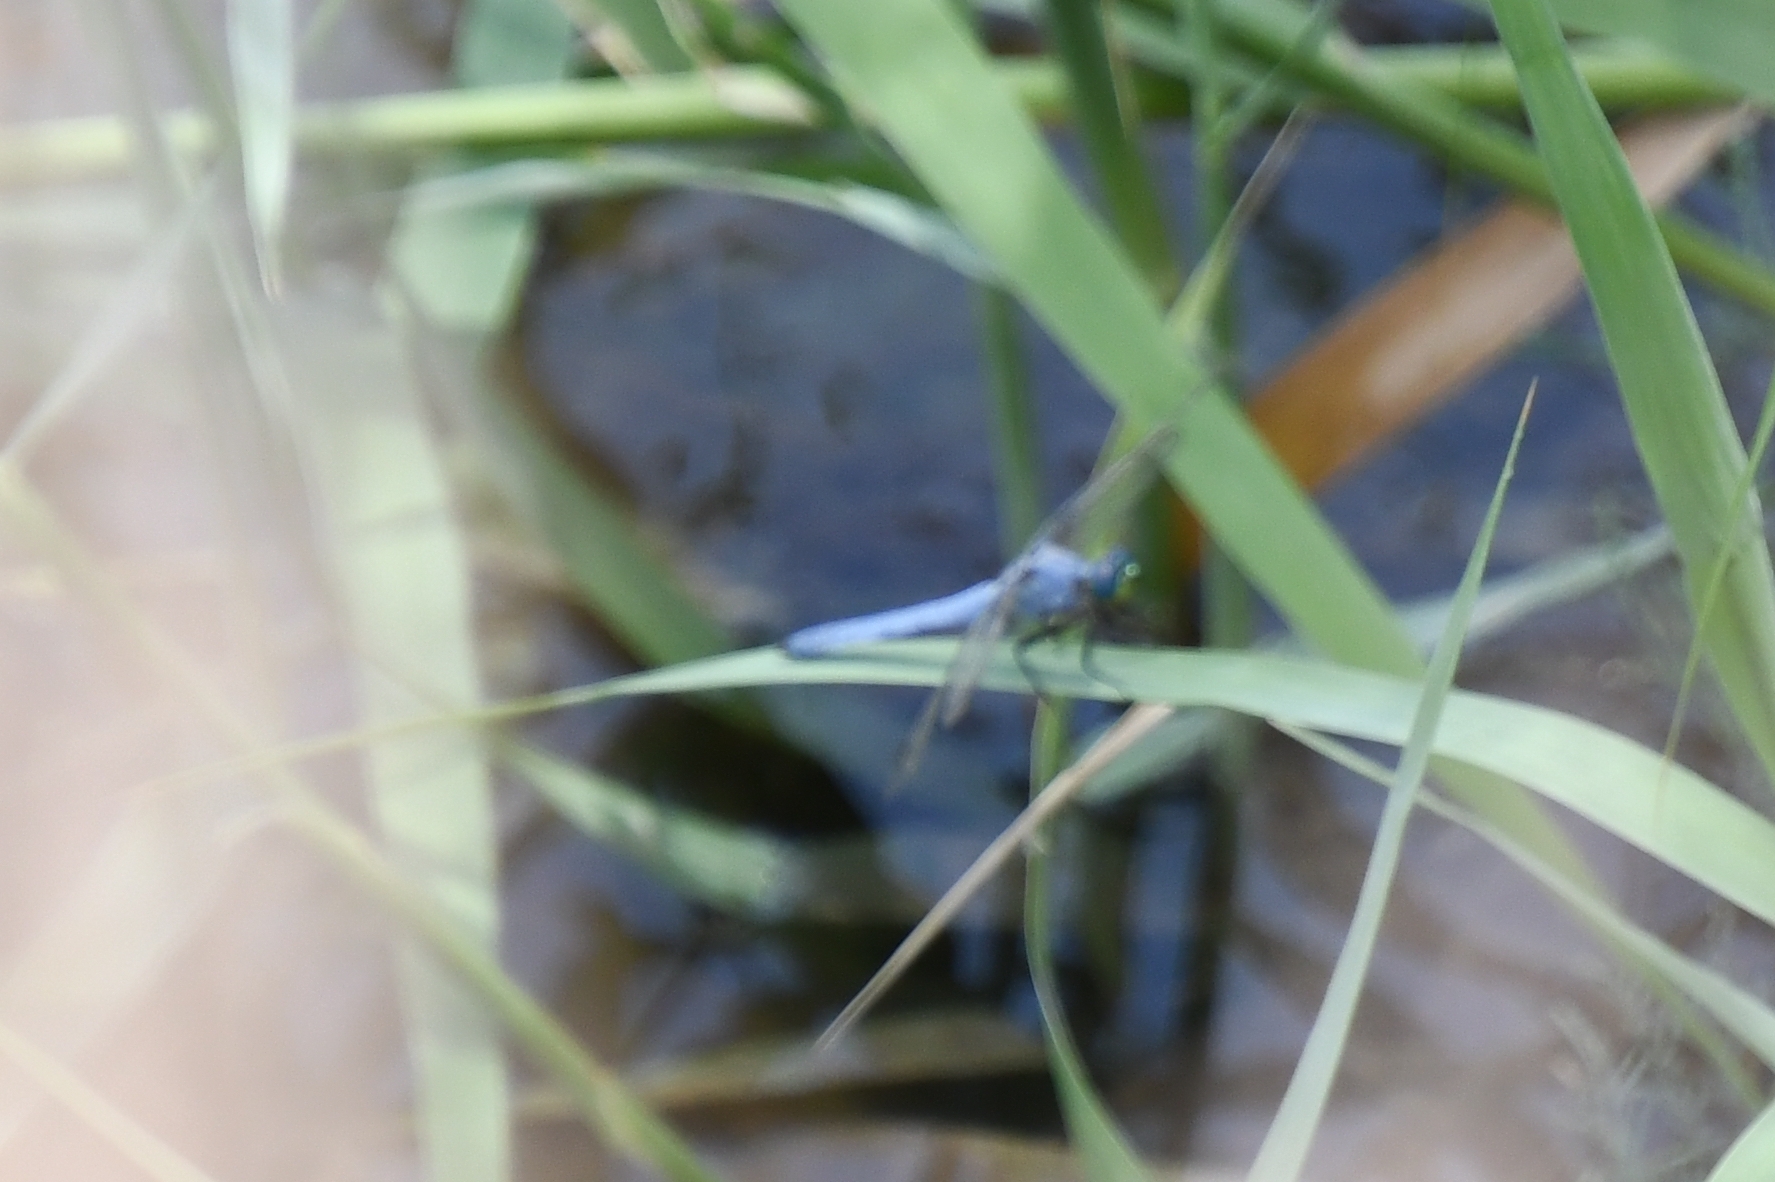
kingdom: Animalia
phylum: Arthropoda
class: Insecta
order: Odonata
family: Libellulidae
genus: Erythemis
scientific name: Erythemis collocata
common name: Western pondhawk
